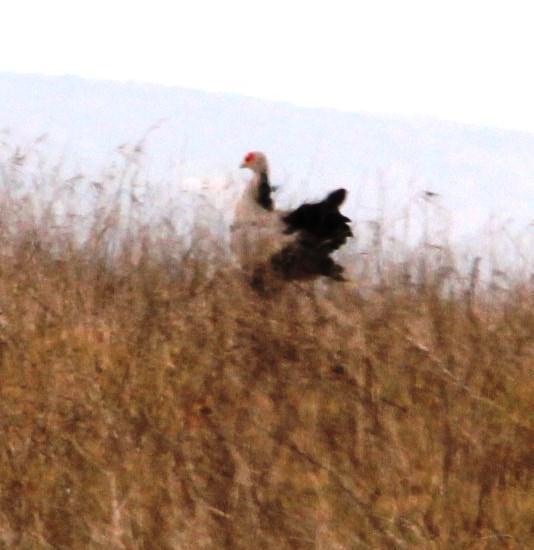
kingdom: Animalia
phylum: Chordata
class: Aves
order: Accipitriformes
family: Sagittariidae
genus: Sagittarius
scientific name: Sagittarius serpentarius
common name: Secretarybird
